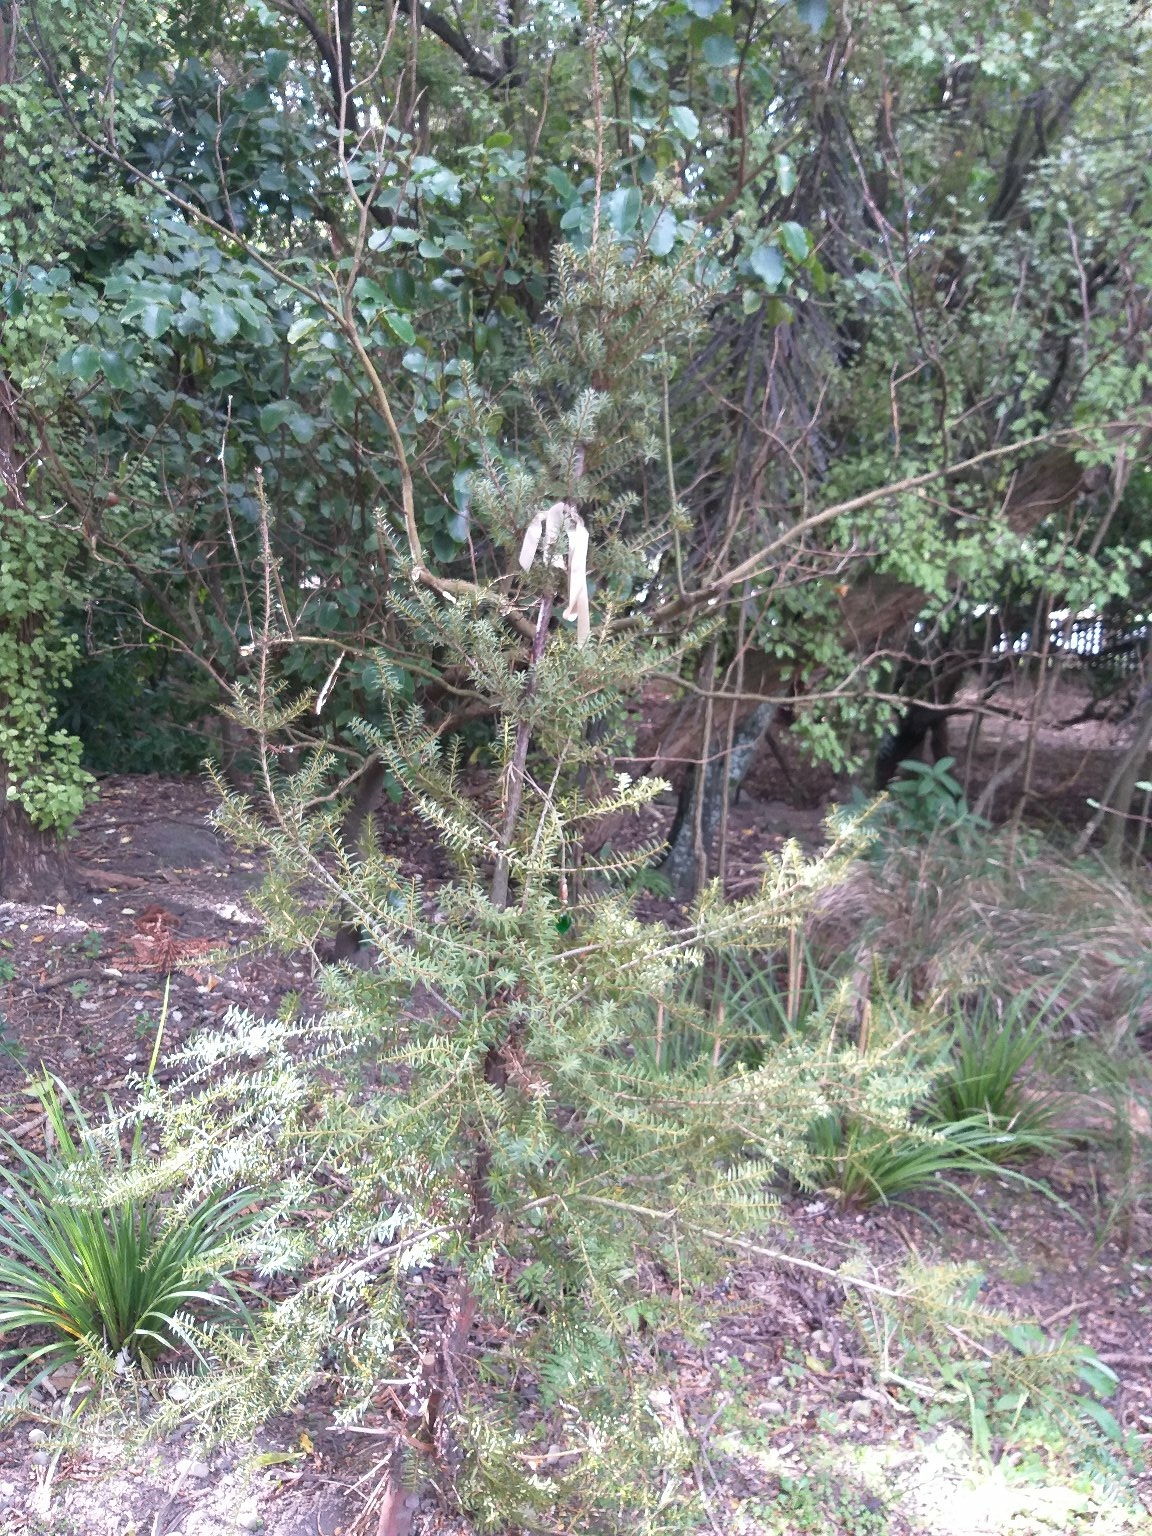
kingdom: Plantae
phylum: Tracheophyta
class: Pinopsida
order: Pinales
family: Podocarpaceae
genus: Podocarpus
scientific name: Podocarpus totara
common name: Totara
